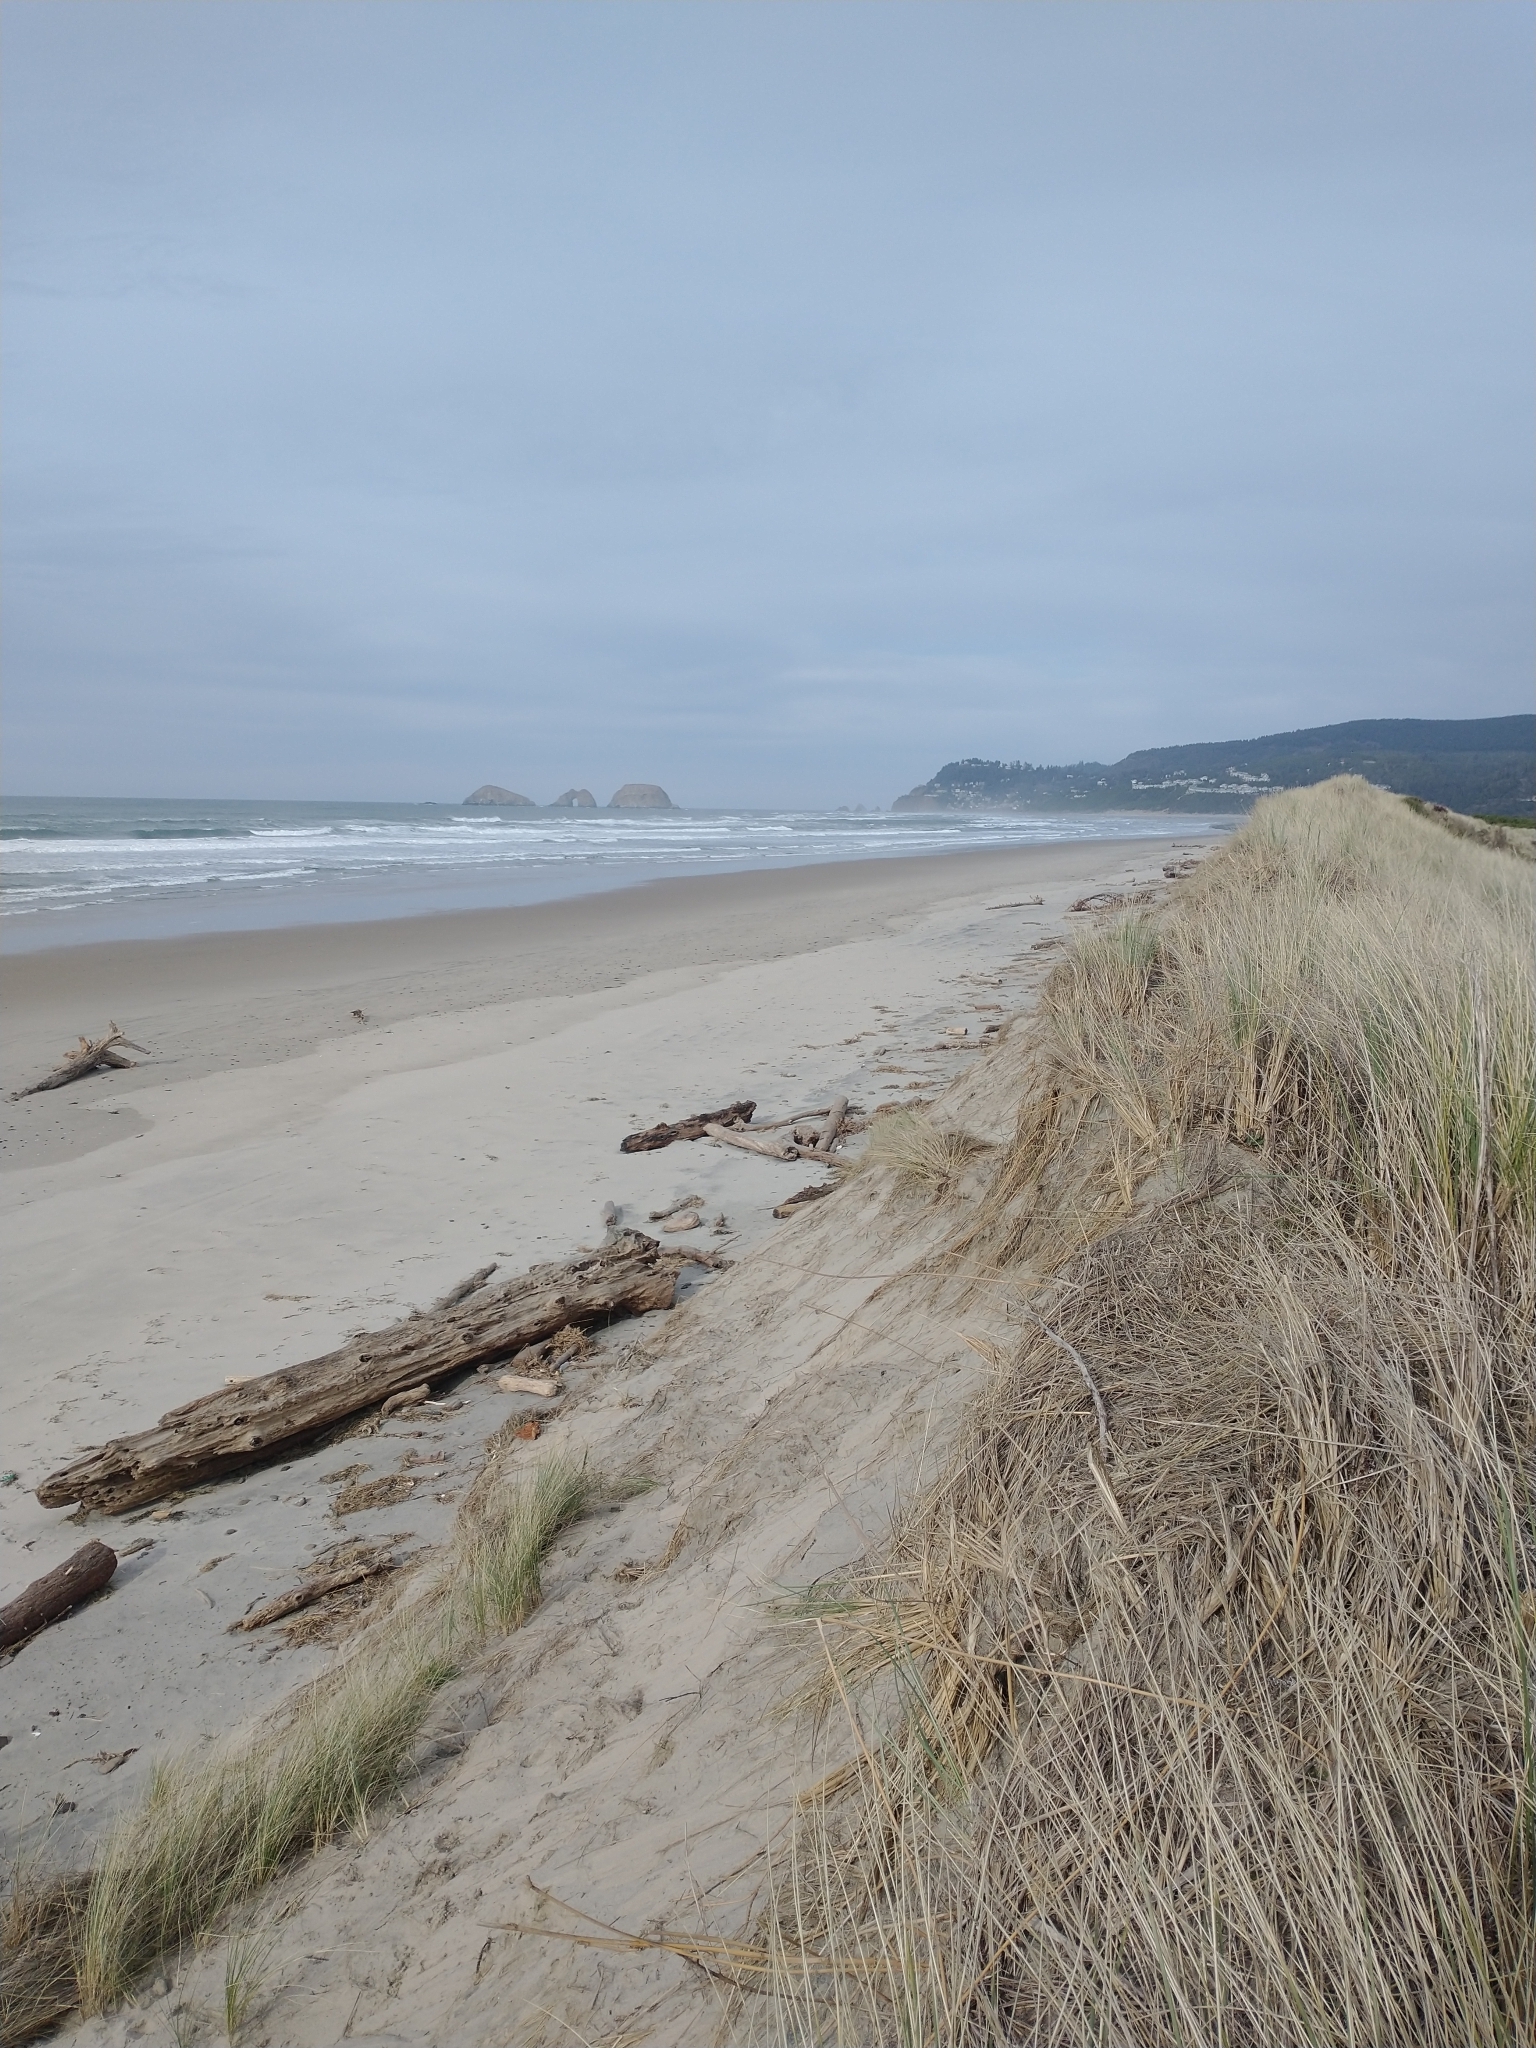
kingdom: Plantae
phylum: Tracheophyta
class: Liliopsida
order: Poales
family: Poaceae
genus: Calamagrostis
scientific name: Calamagrostis arenaria
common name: European beachgrass
